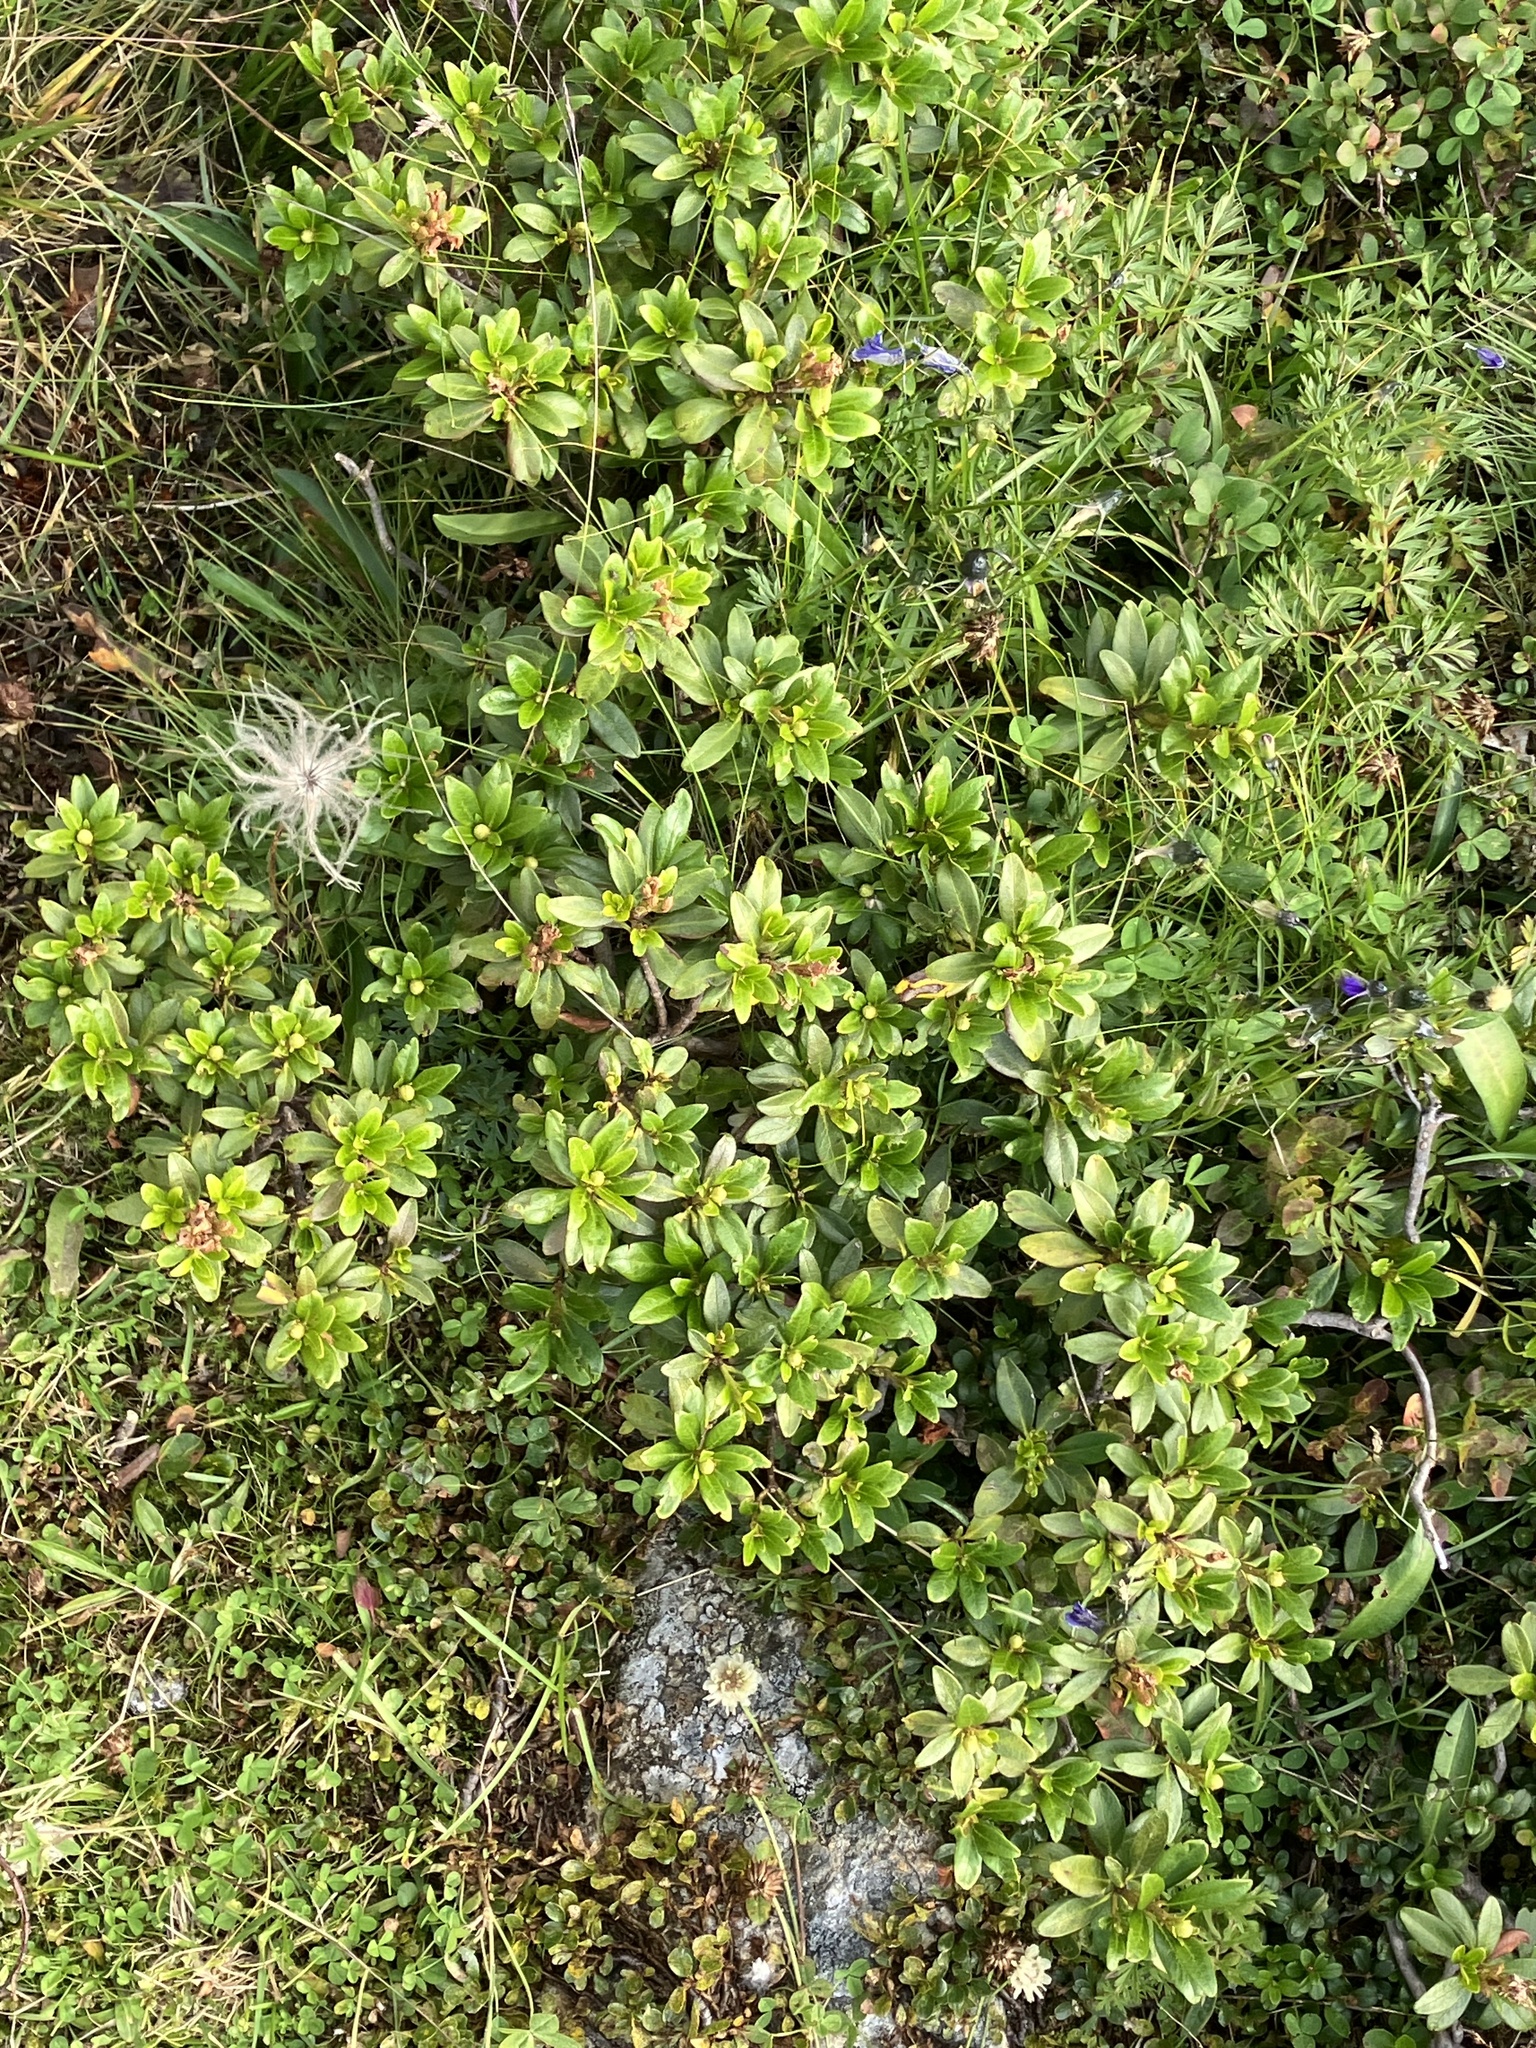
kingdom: Plantae
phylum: Tracheophyta
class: Magnoliopsida
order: Ericales
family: Ericaceae
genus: Rhododendron
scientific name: Rhododendron ferrugineum
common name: Alpenrose
